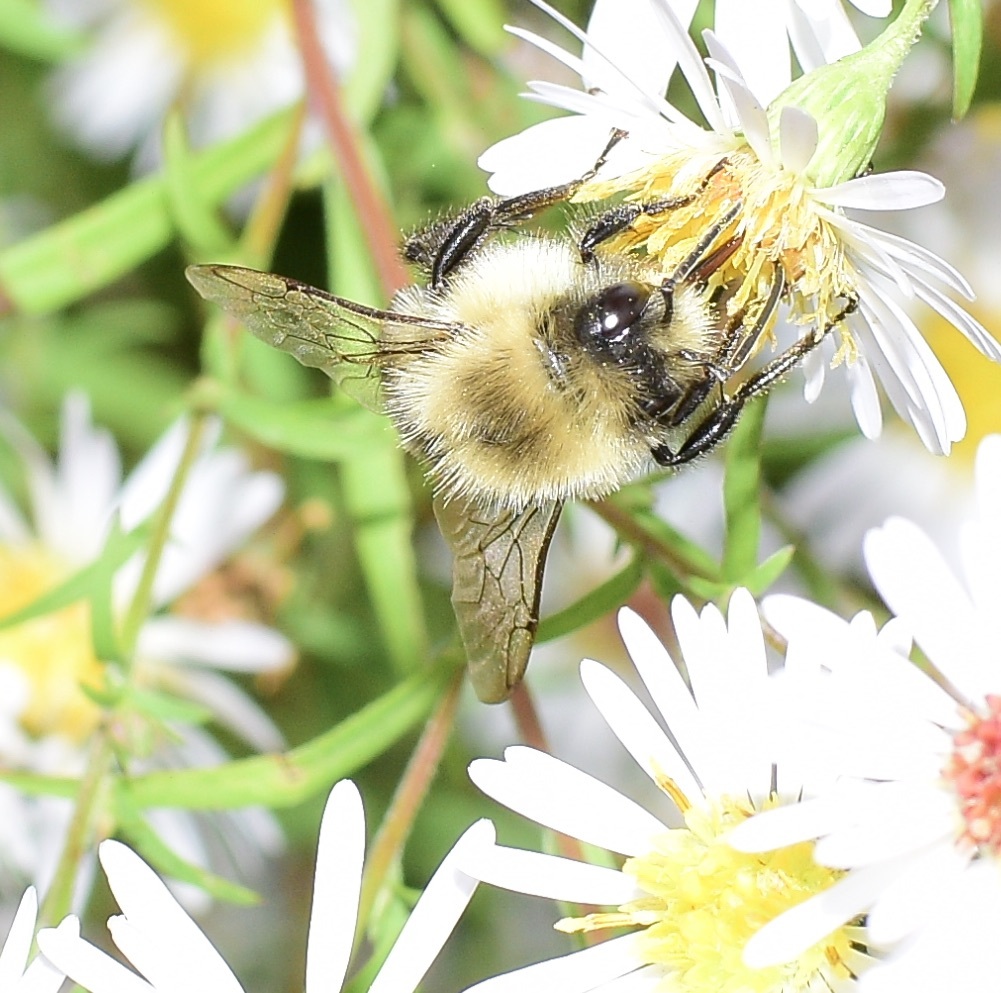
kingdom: Animalia
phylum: Arthropoda
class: Insecta
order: Hymenoptera
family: Apidae
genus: Bombus
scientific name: Bombus impatiens
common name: Common eastern bumble bee
